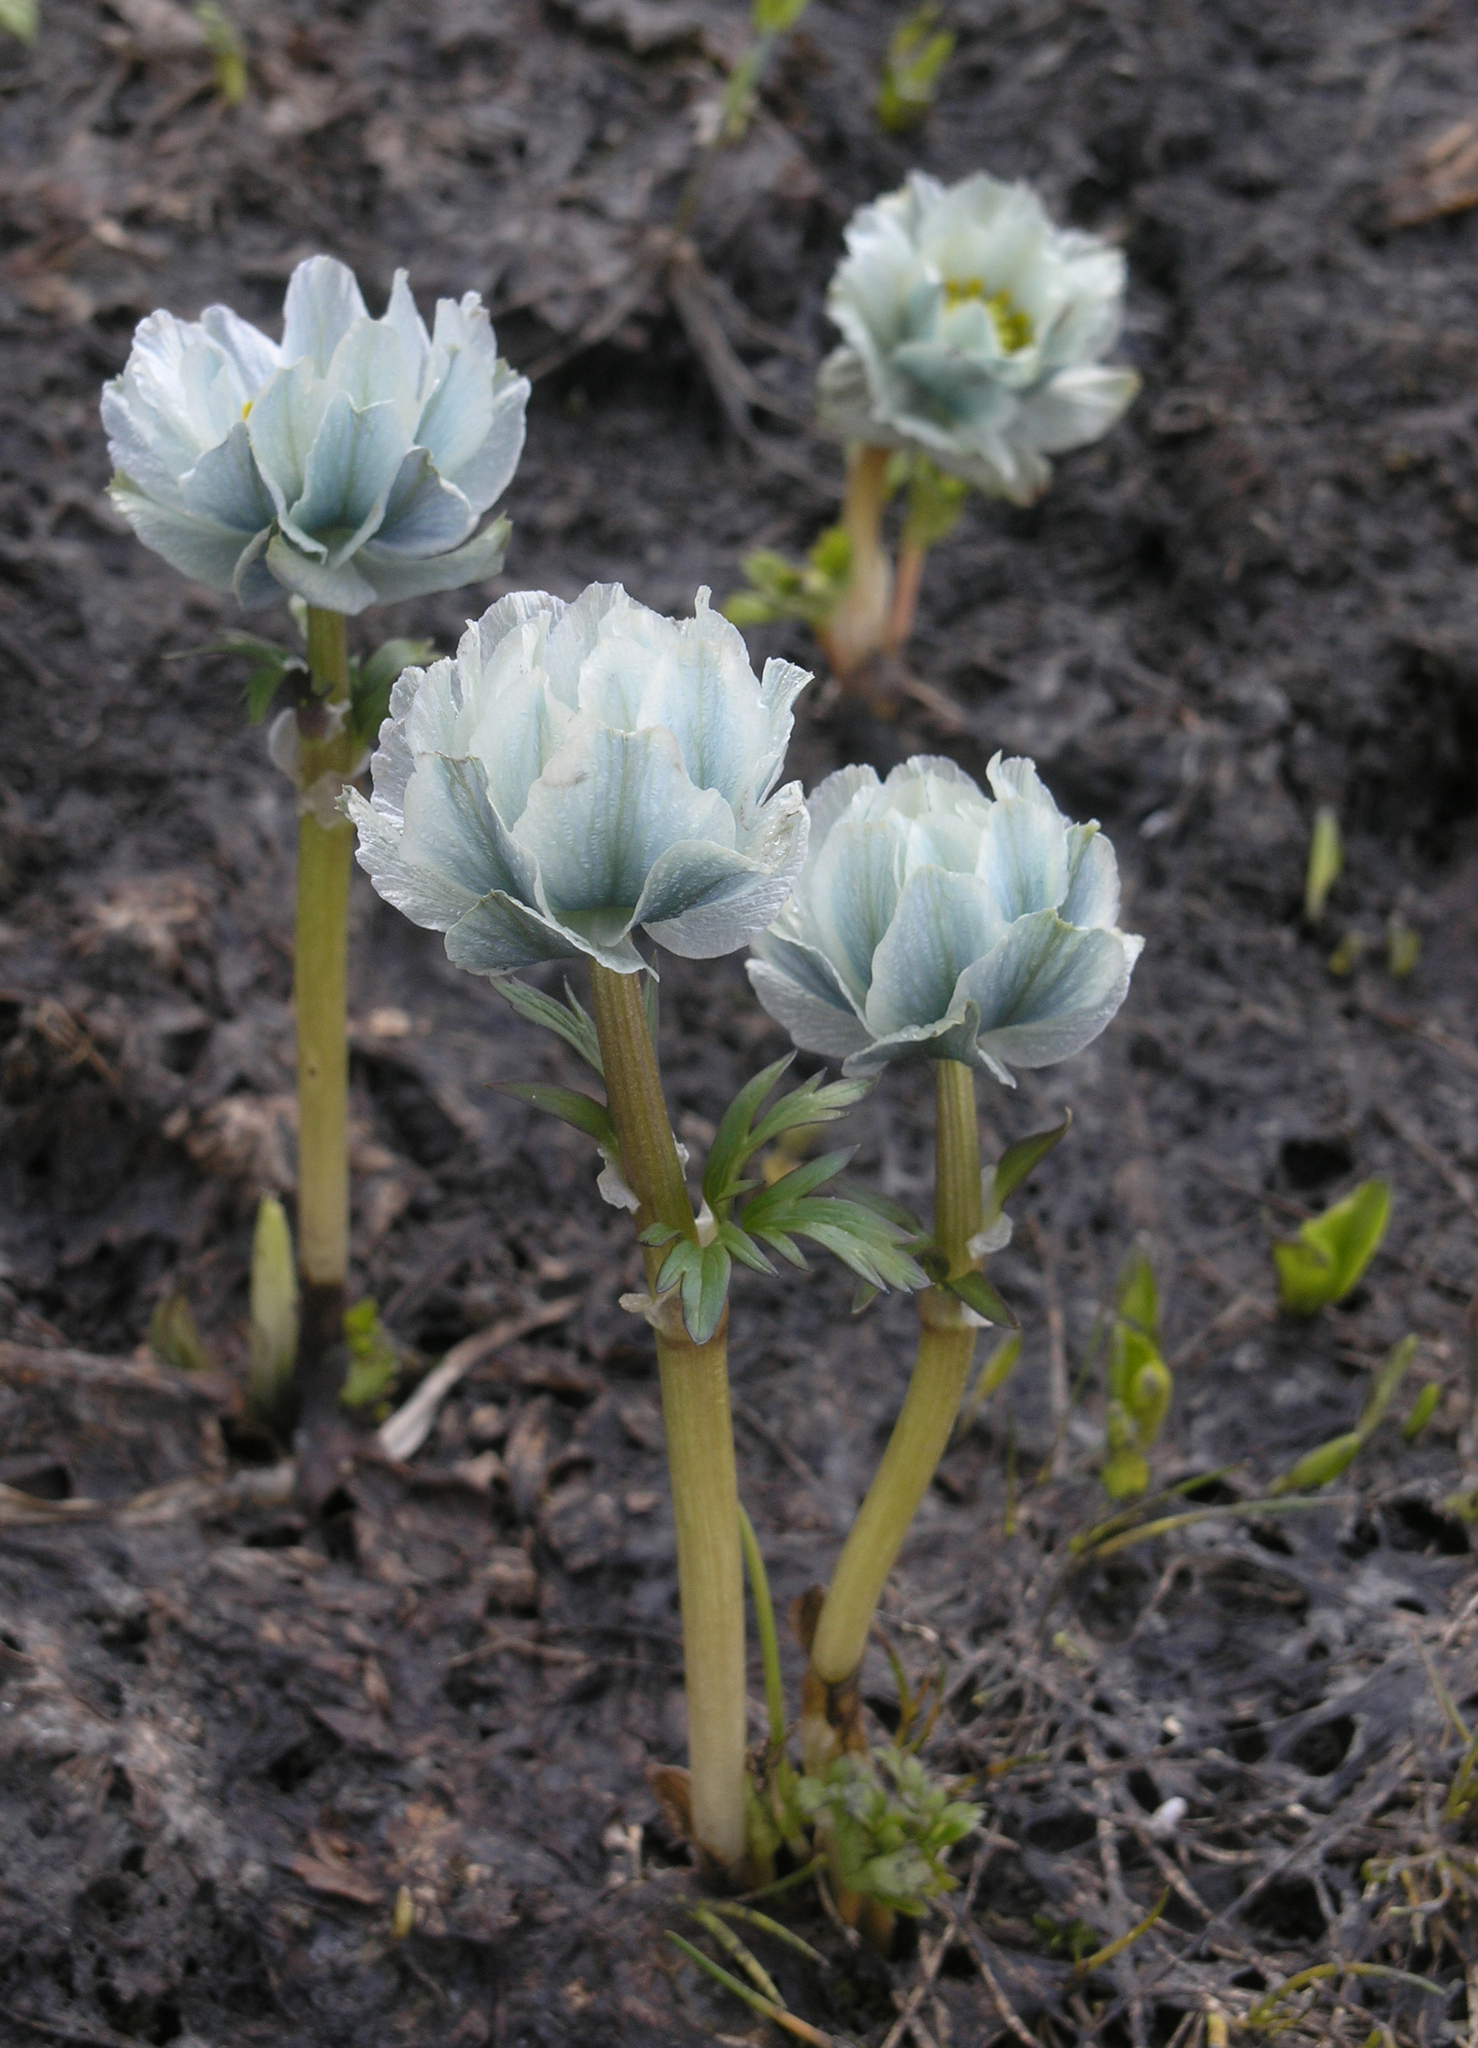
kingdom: Plantae
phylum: Tracheophyta
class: Magnoliopsida
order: Ranunculales
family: Ranunculaceae
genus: Trollius
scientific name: Trollius lilacinus
